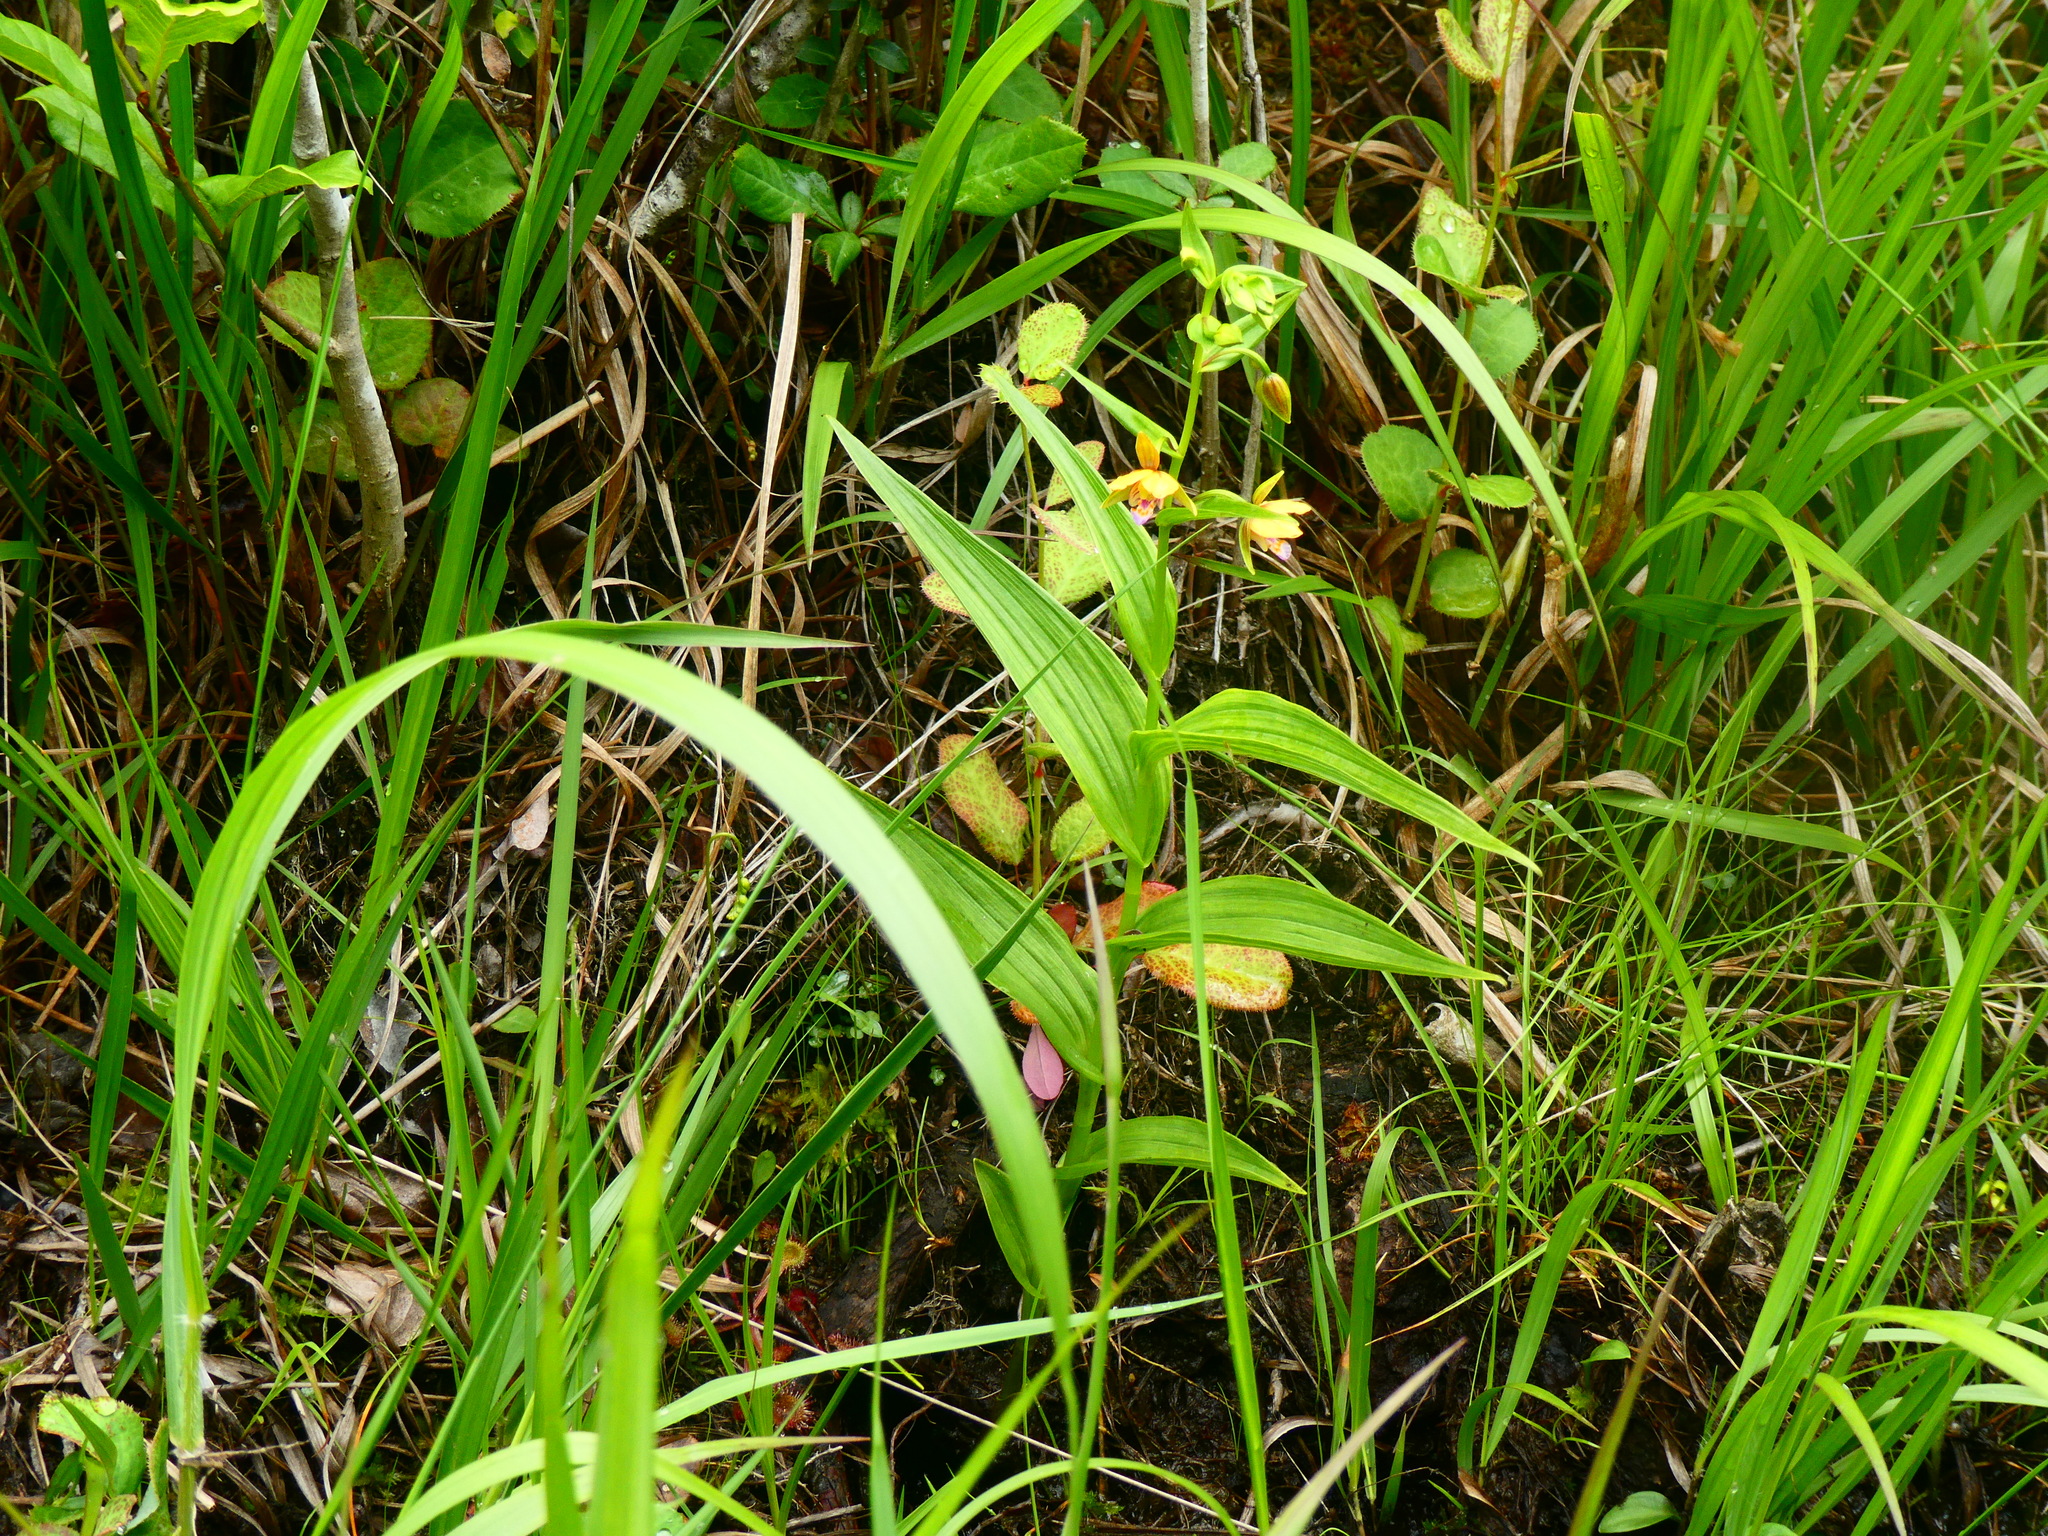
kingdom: Plantae
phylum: Tracheophyta
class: Liliopsida
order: Asparagales
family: Orchidaceae
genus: Epipactis
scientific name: Epipactis thunbergii
